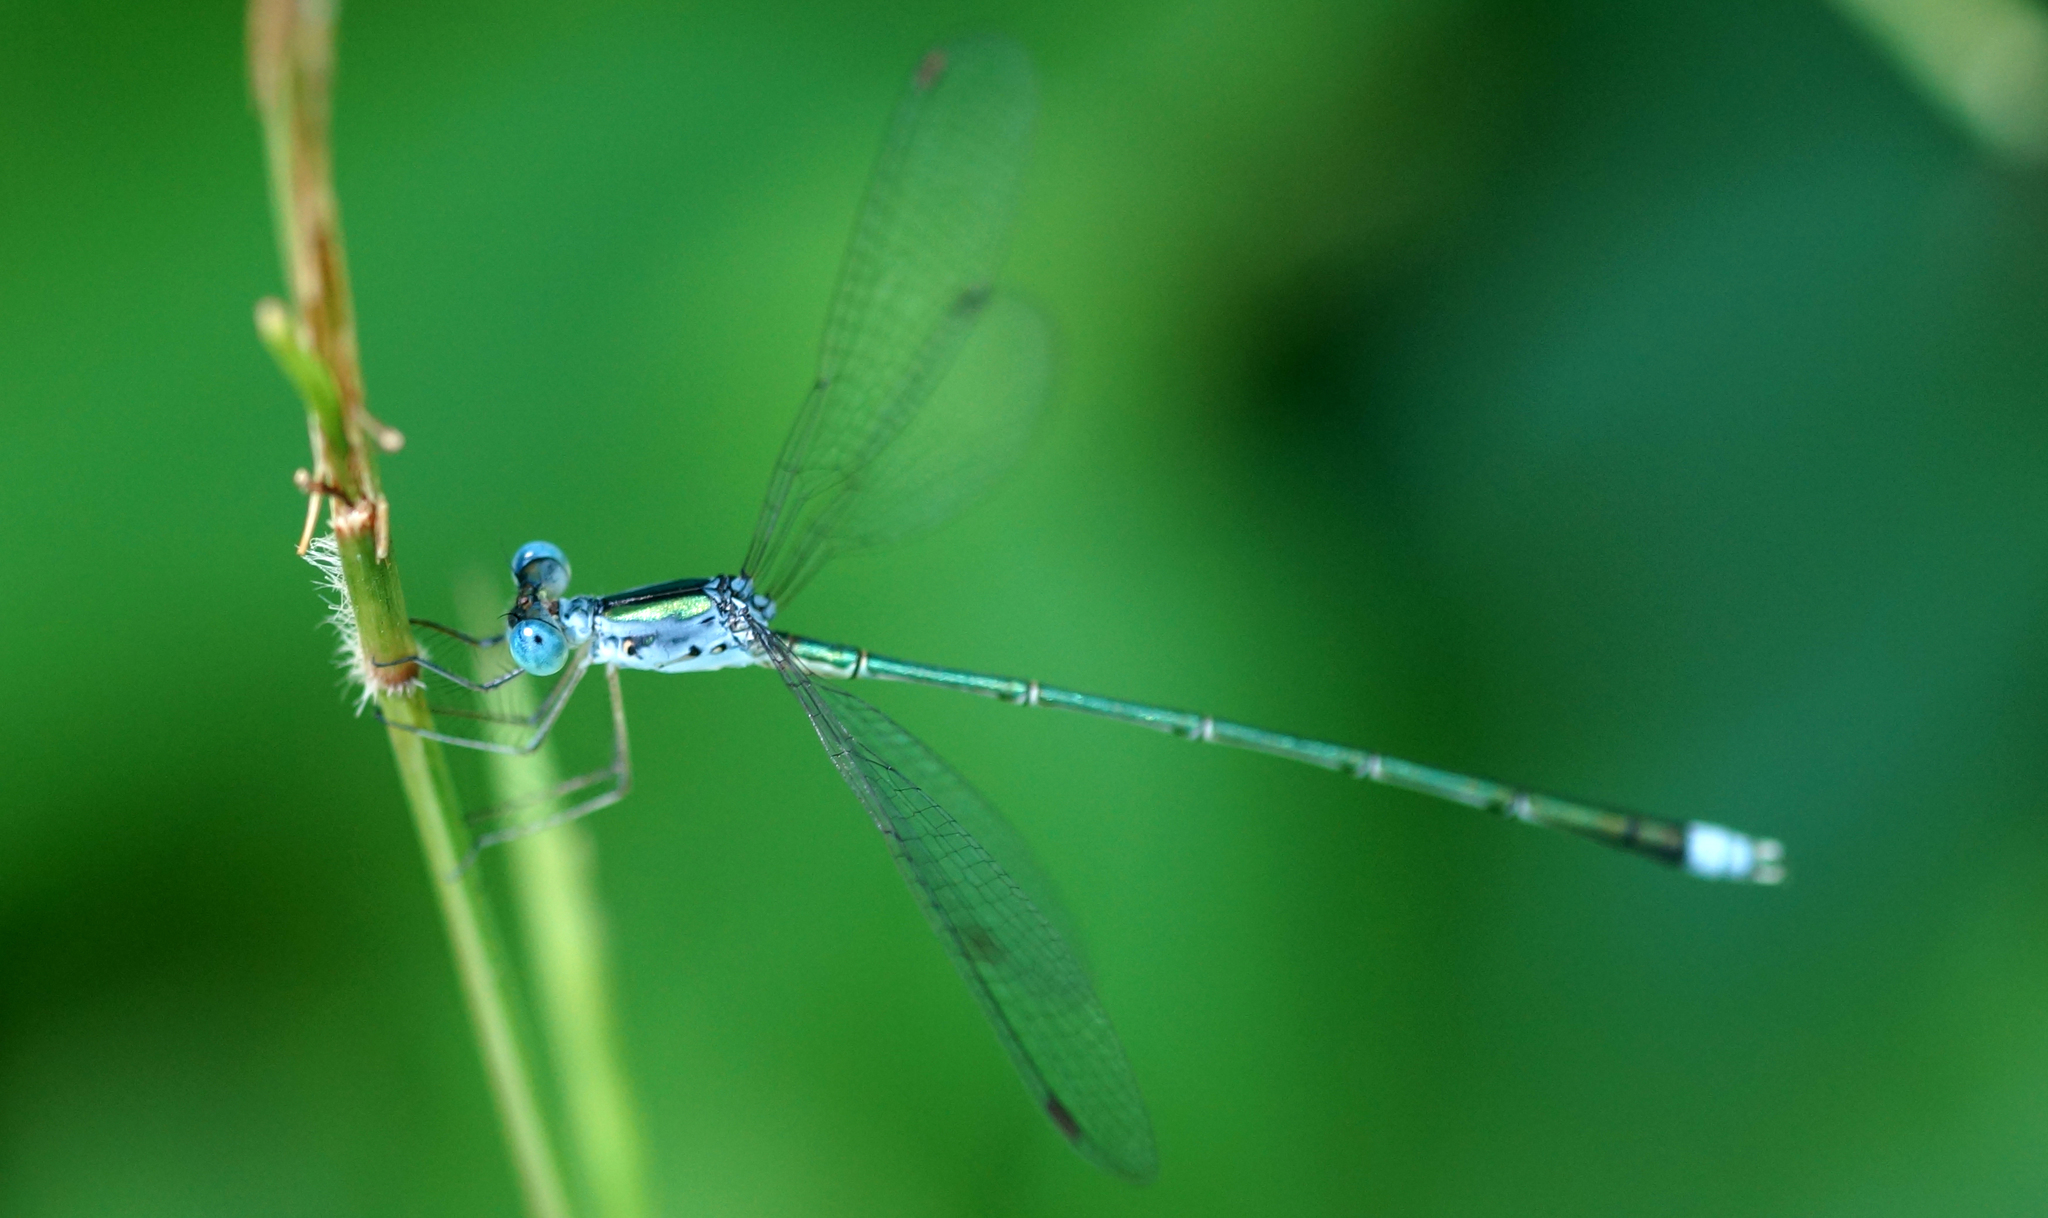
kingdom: Animalia
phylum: Arthropoda
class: Insecta
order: Odonata
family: Lestidae
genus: Lestes
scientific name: Lestes elatus
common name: Emerald spreadwing
